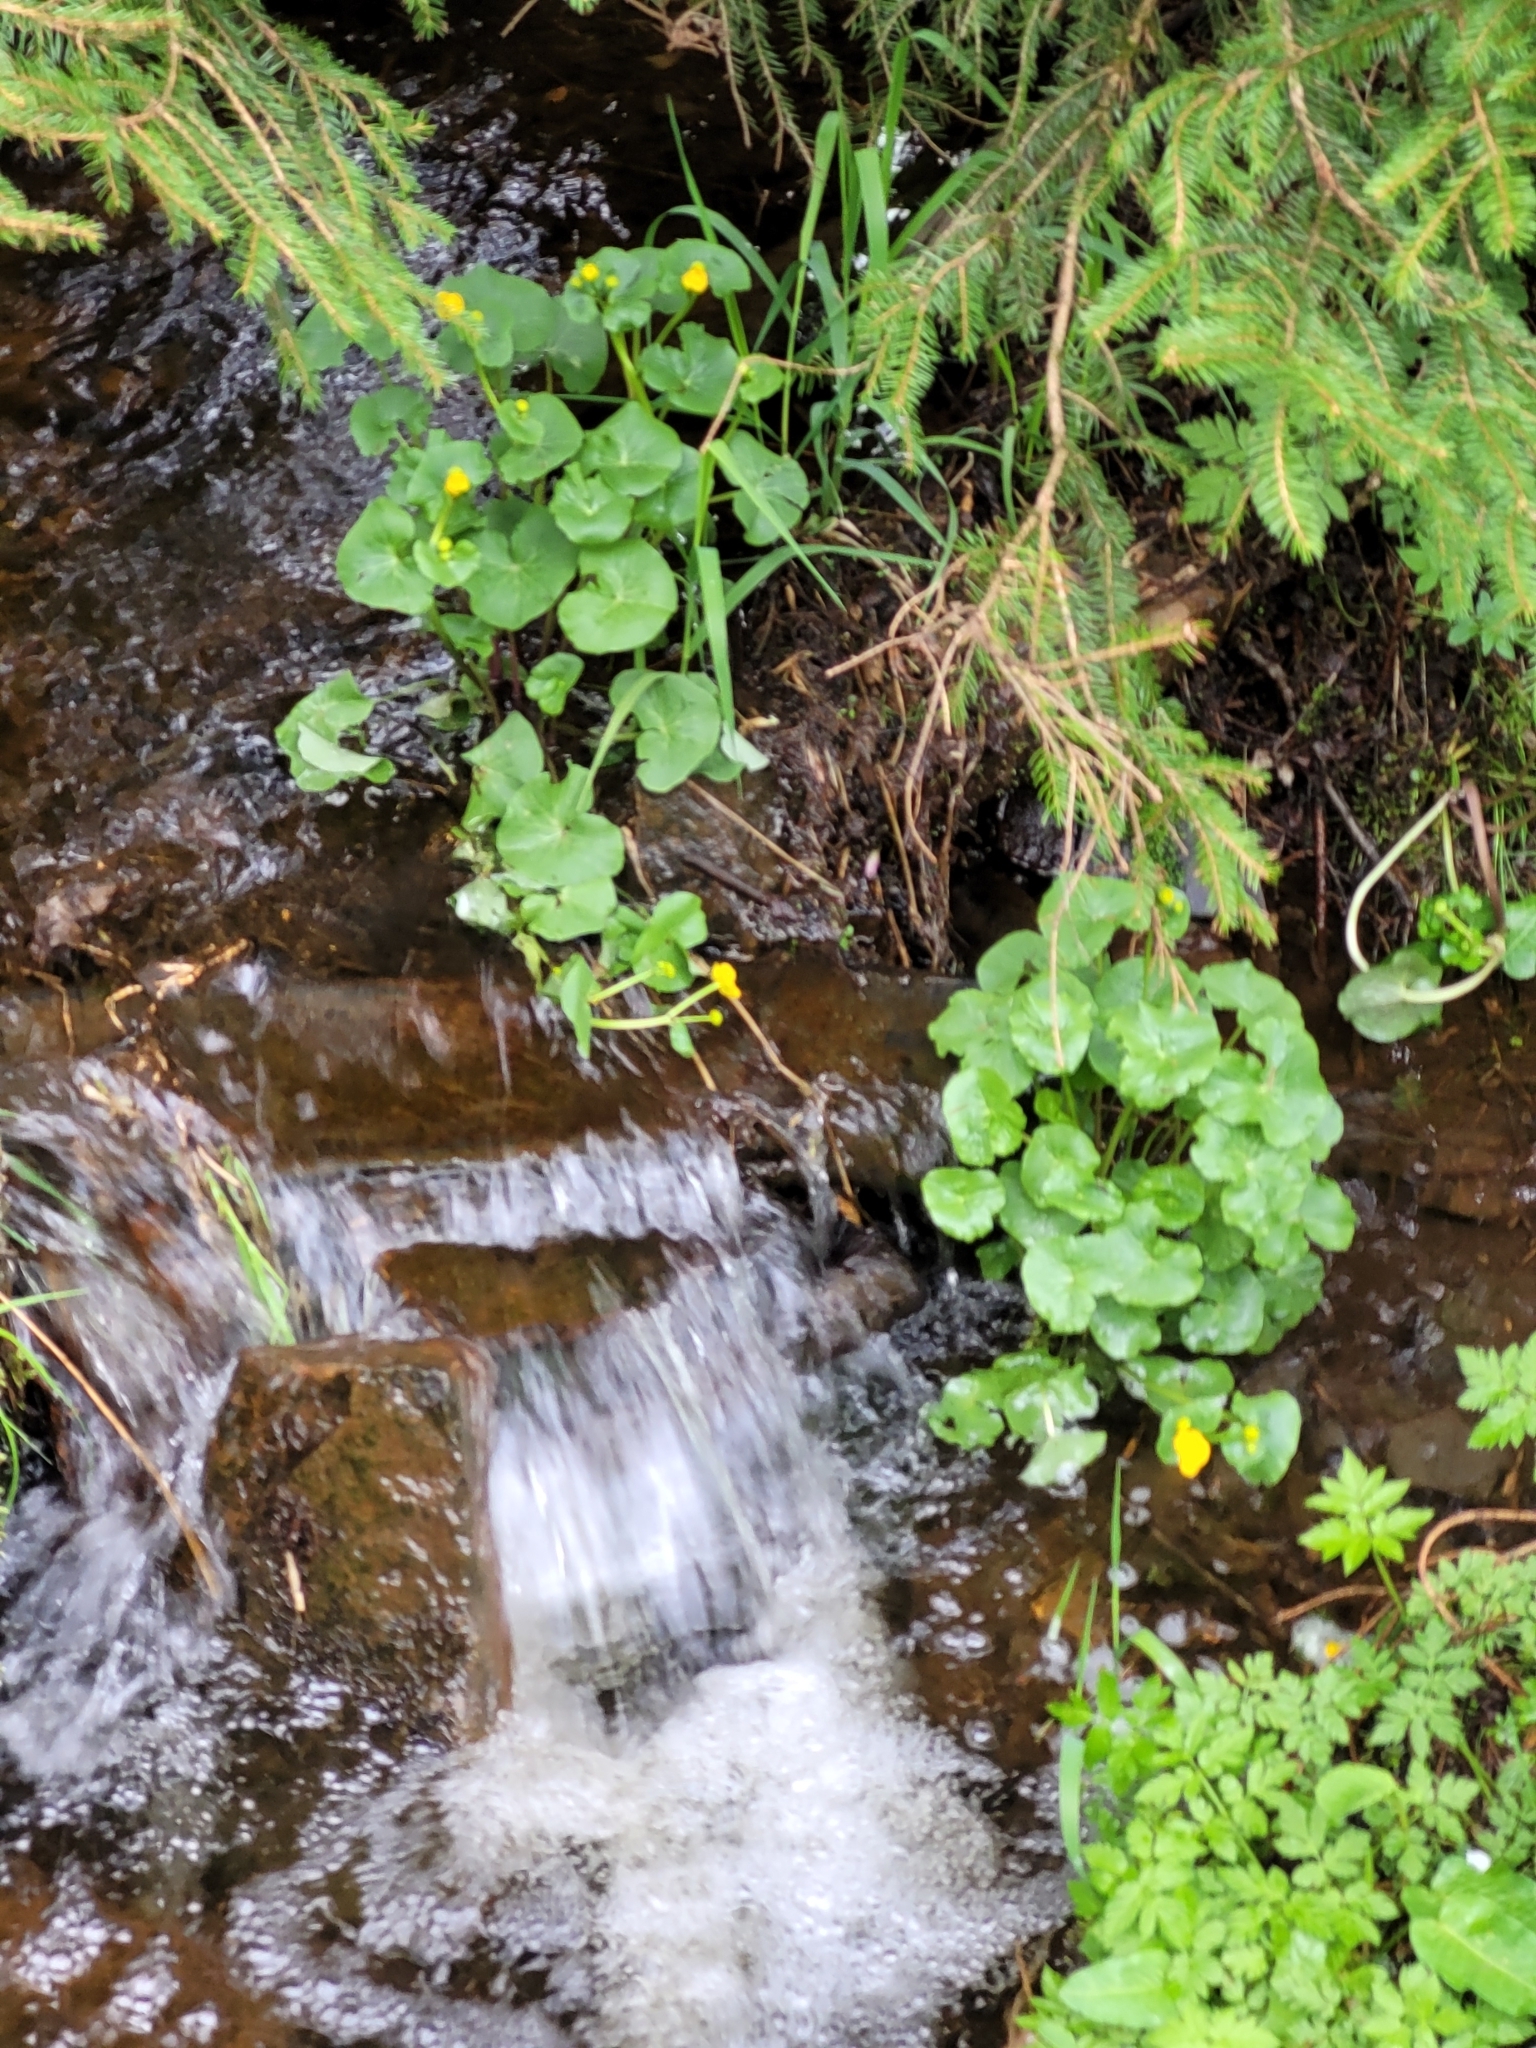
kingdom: Plantae
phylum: Tracheophyta
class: Magnoliopsida
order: Ranunculales
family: Ranunculaceae
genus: Caltha
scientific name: Caltha palustris
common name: Marsh marigold
